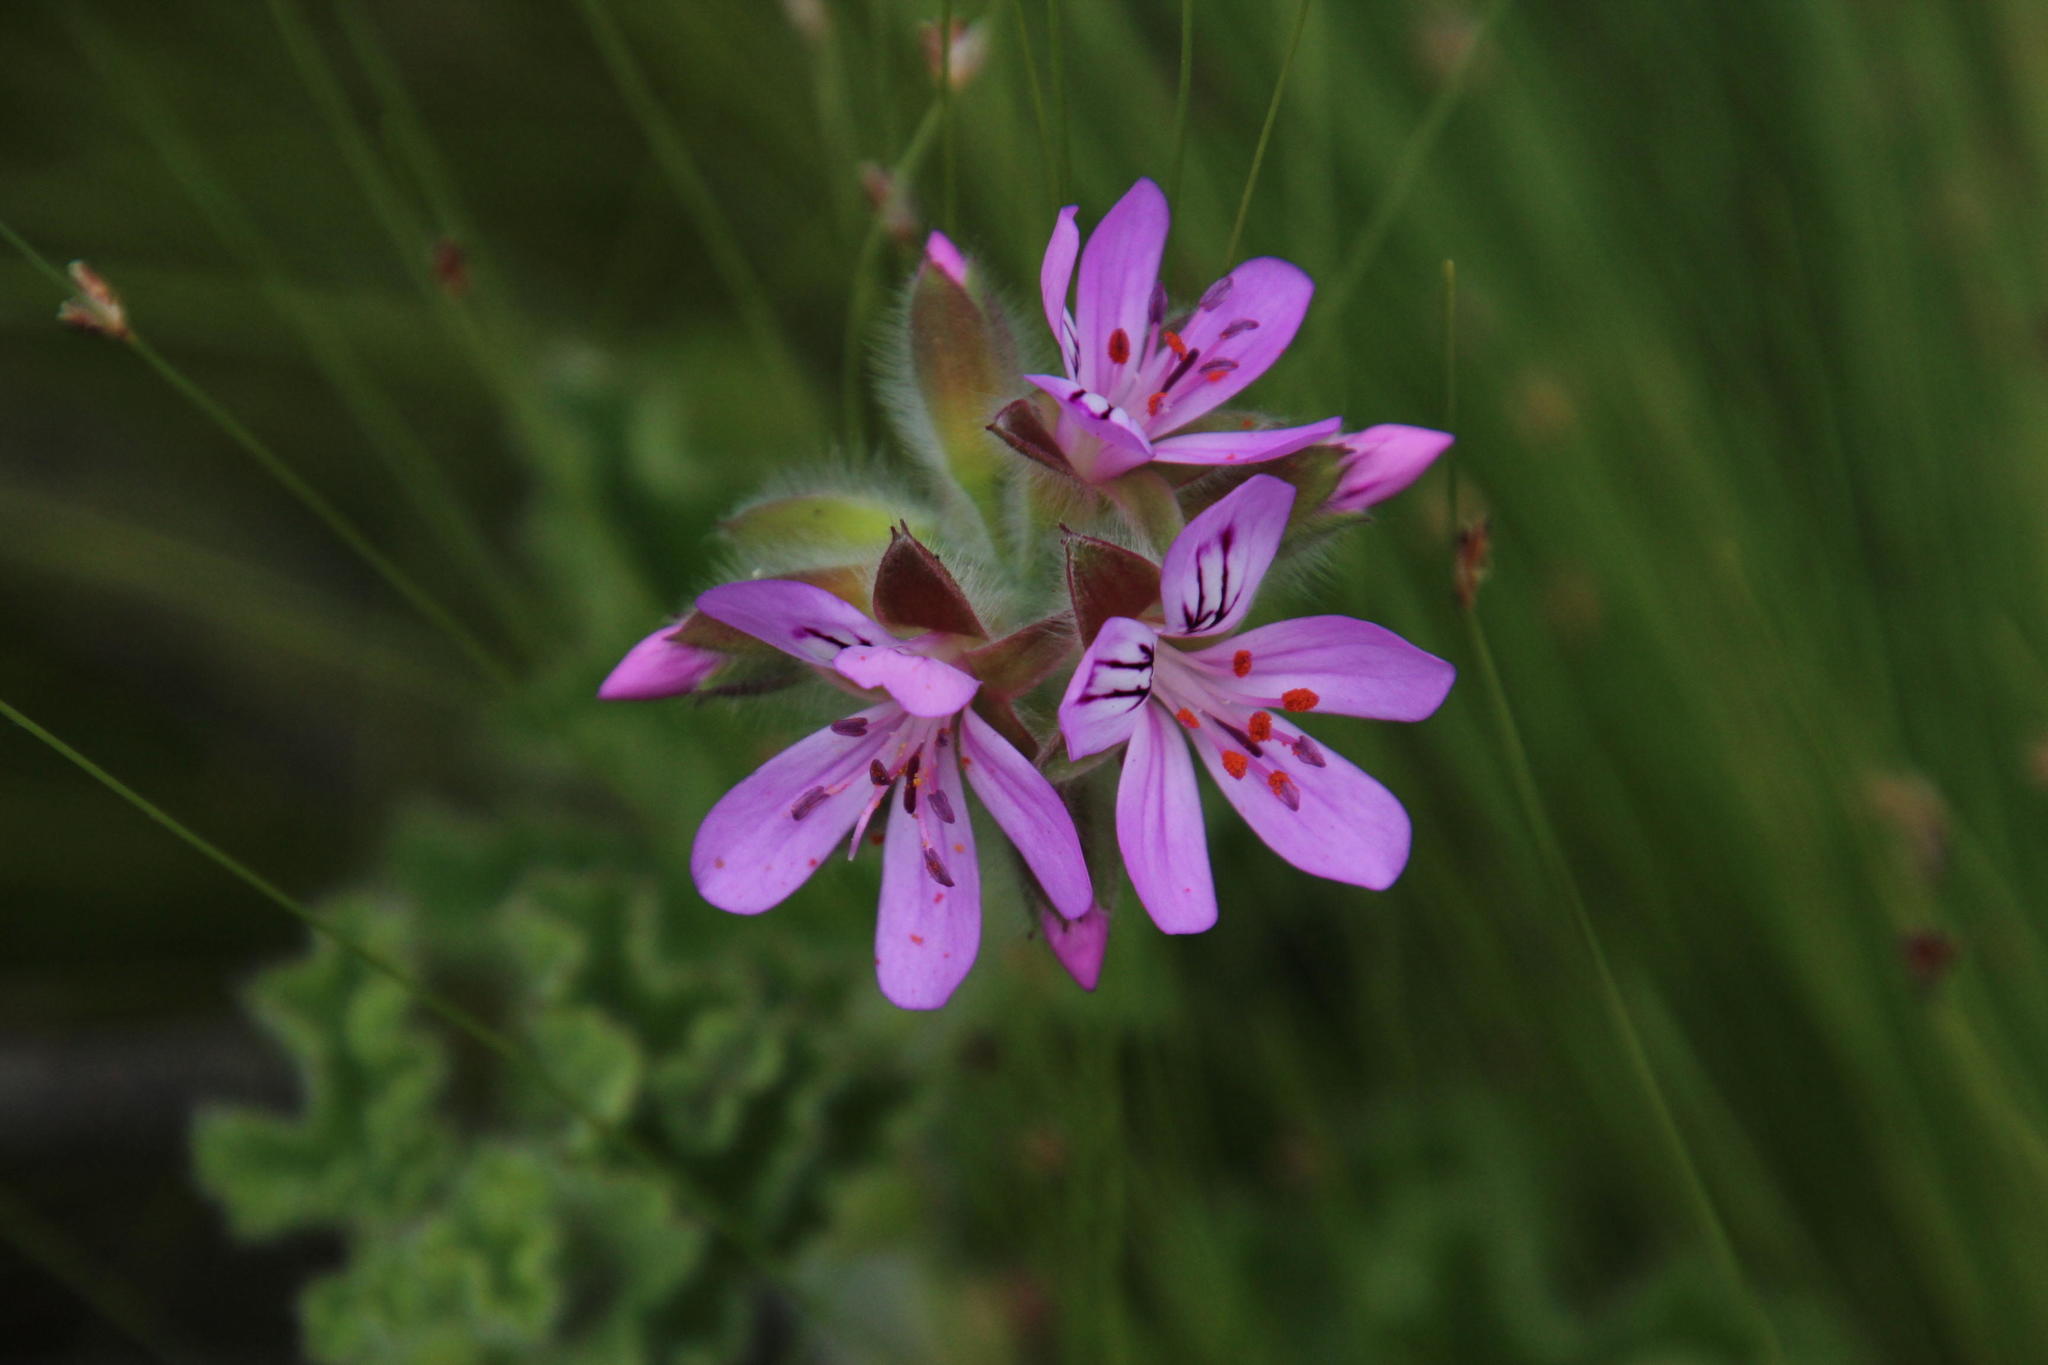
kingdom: Plantae
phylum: Tracheophyta
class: Magnoliopsida
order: Geraniales
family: Geraniaceae
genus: Pelargonium
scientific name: Pelargonium capitatum
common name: Rose scented geranium
